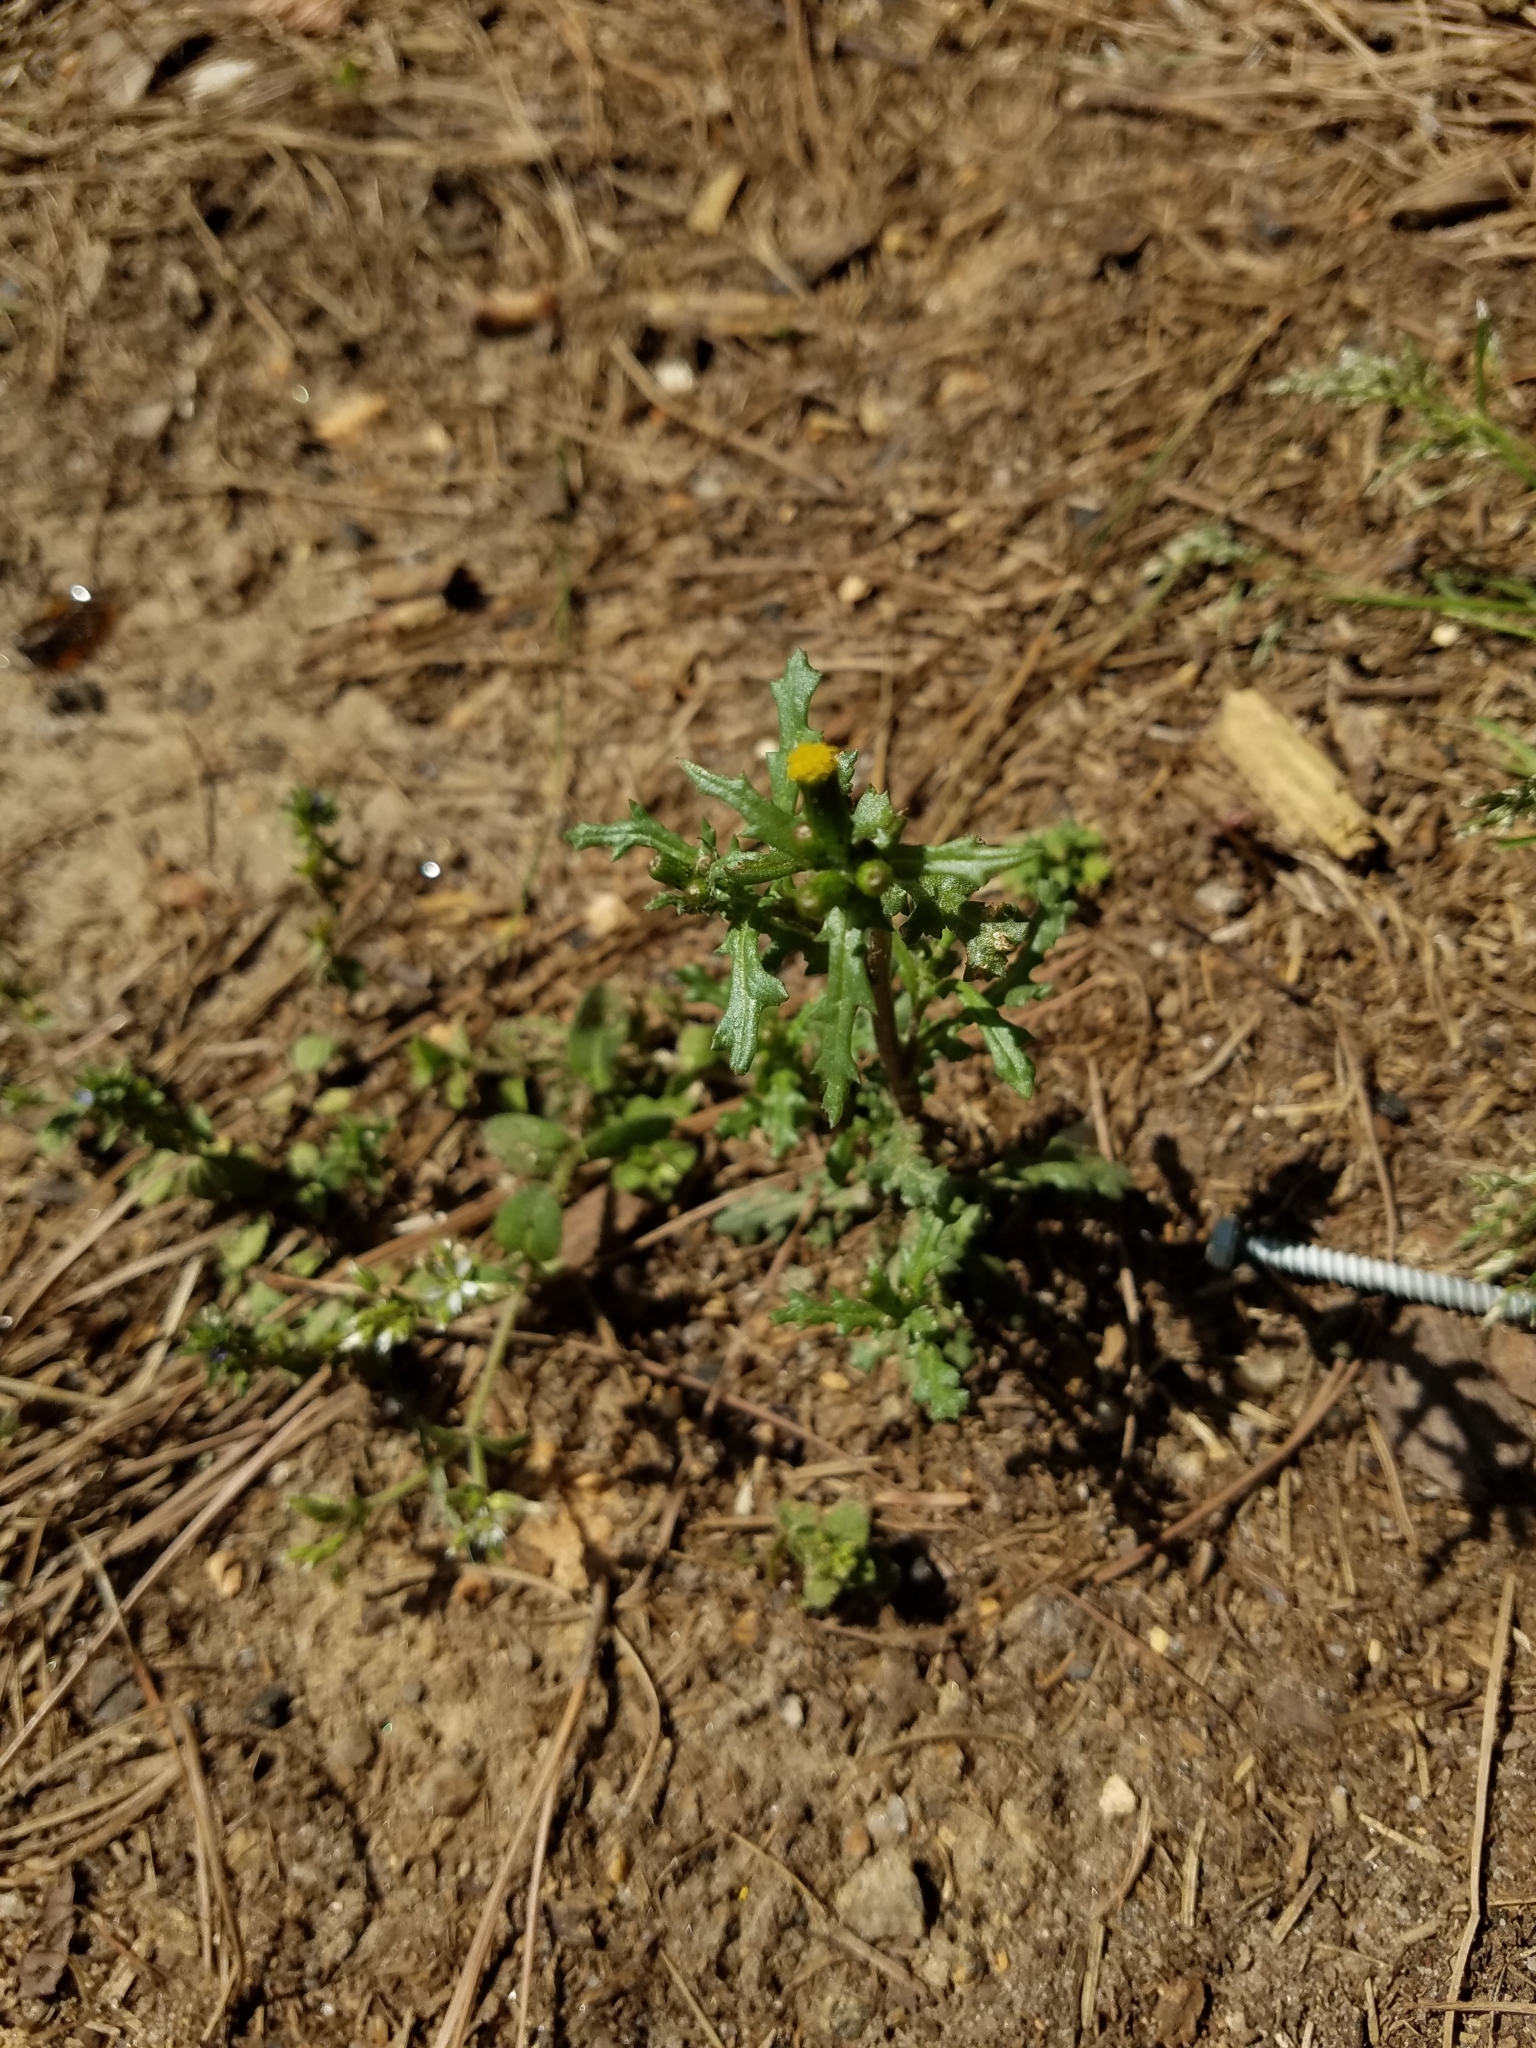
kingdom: Plantae
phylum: Tracheophyta
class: Magnoliopsida
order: Asterales
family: Asteraceae
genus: Senecio
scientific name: Senecio vulgaris
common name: Old-man-in-the-spring
